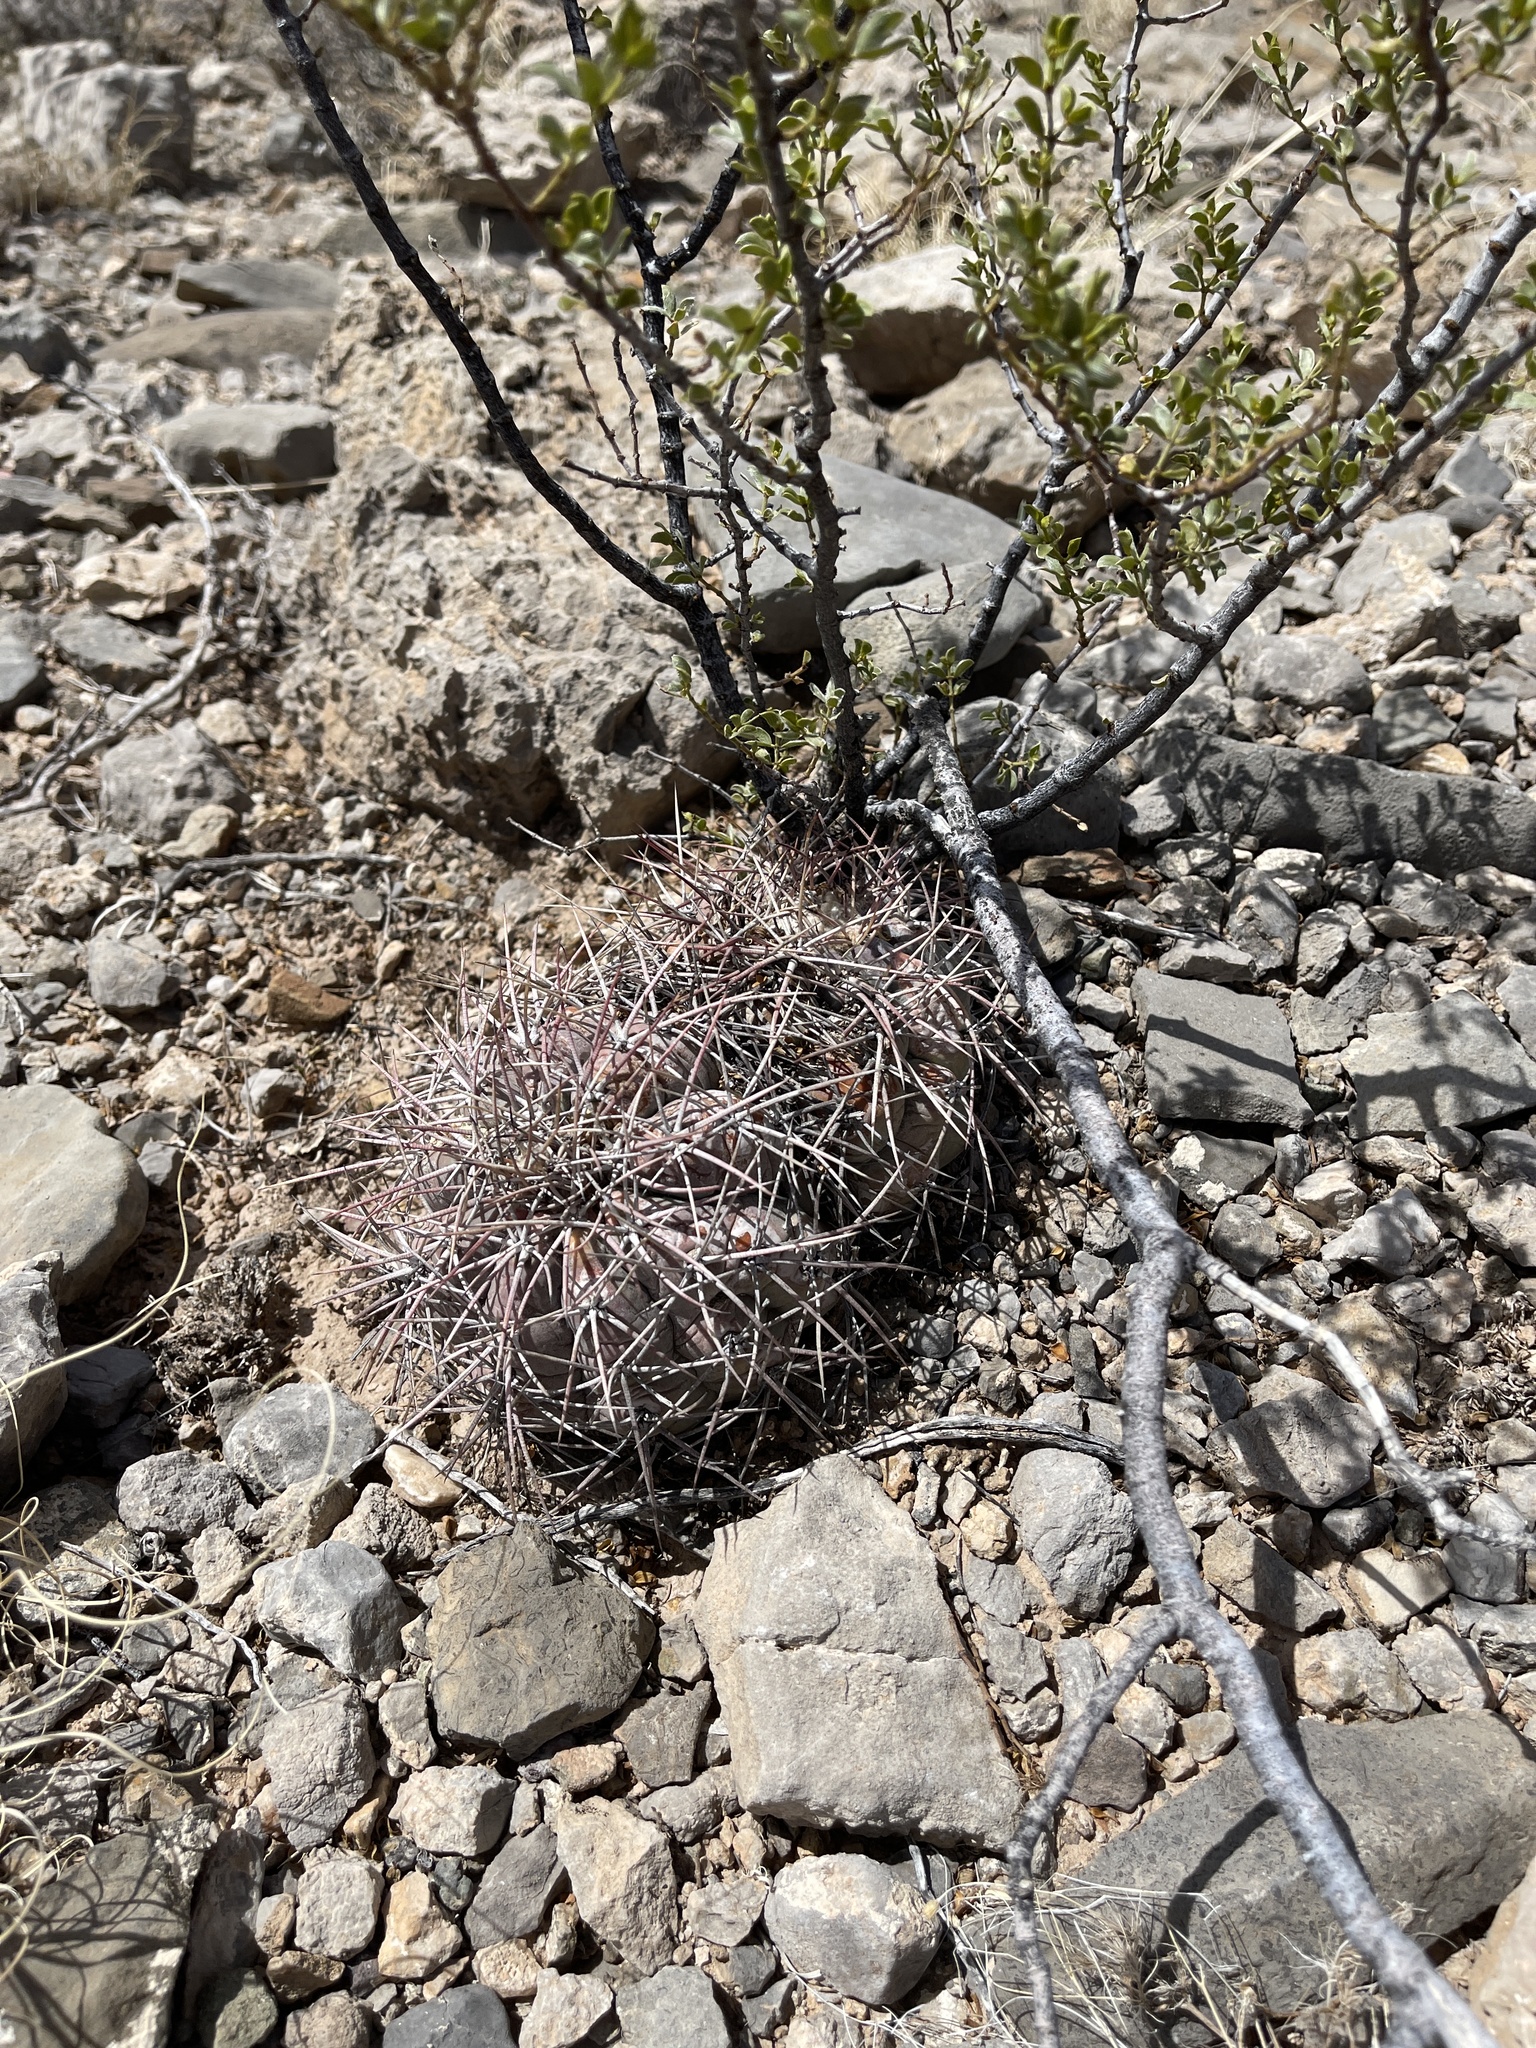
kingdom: Plantae
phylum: Tracheophyta
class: Magnoliopsida
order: Caryophyllales
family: Cactaceae
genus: Echinocactus
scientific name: Echinocactus horizonthalonius
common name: Devilshead
